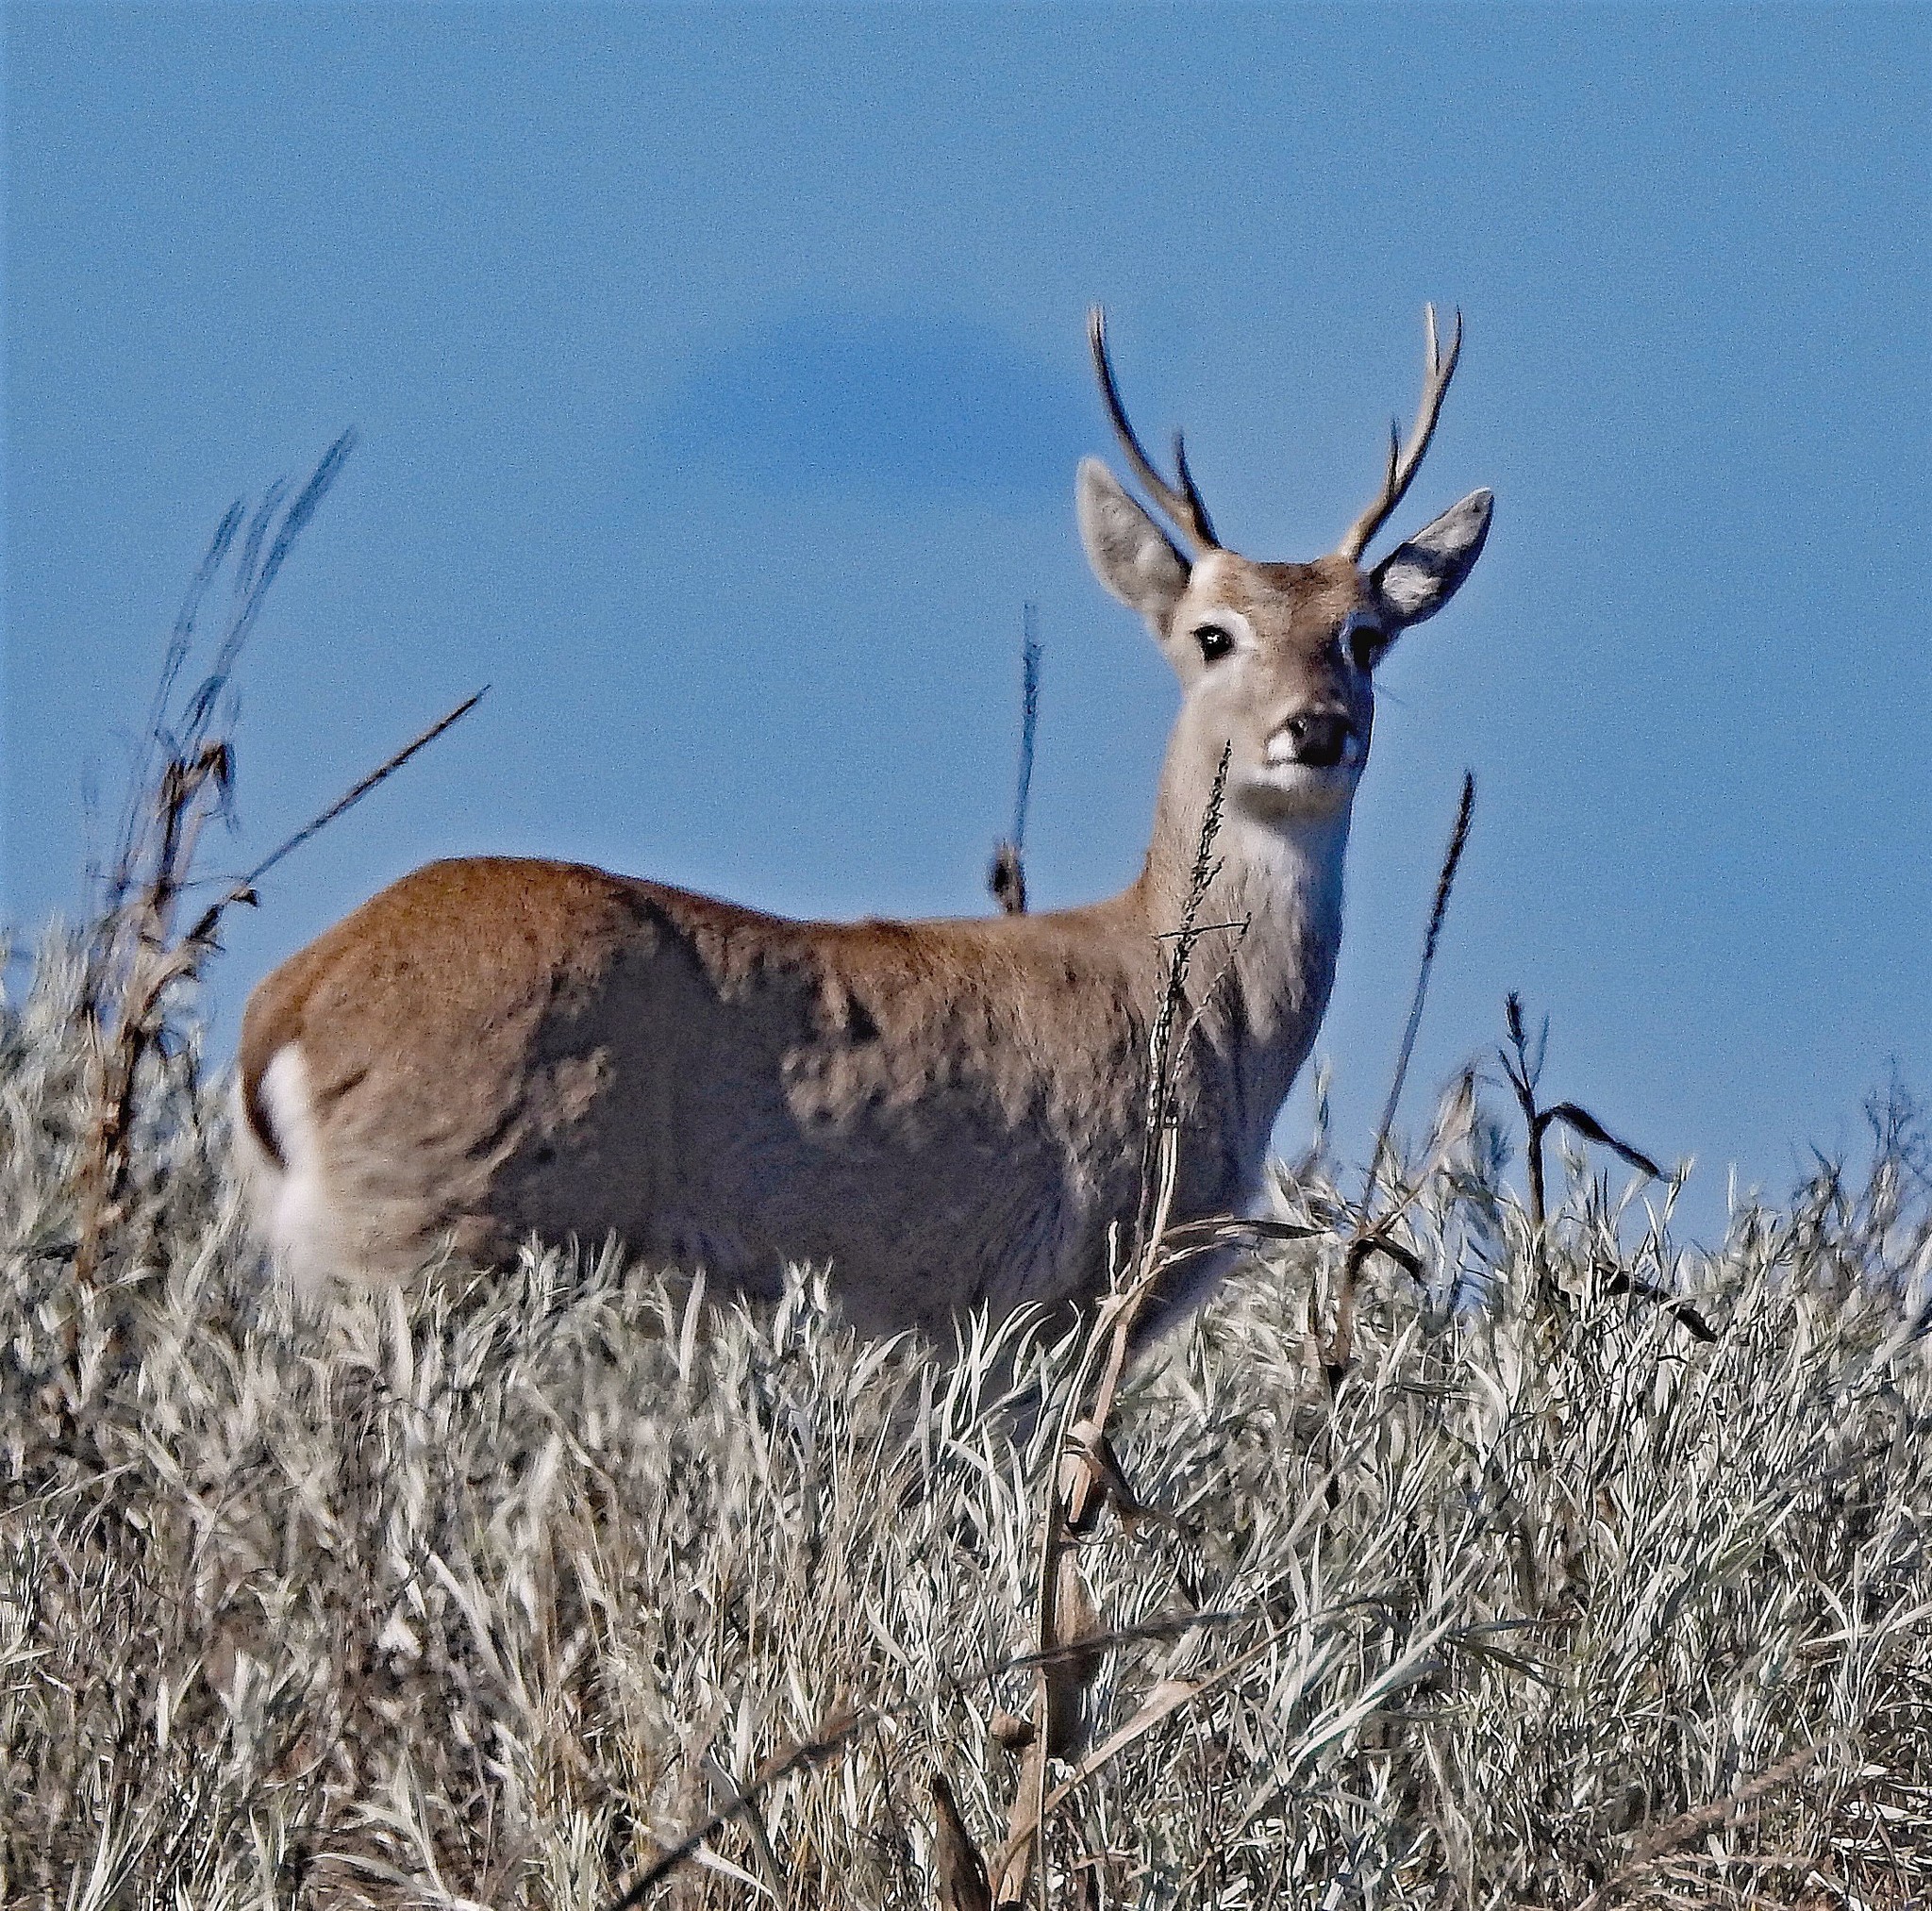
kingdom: Animalia
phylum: Chordata
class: Mammalia
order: Artiodactyla
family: Cervidae
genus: Ozotoceros
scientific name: Ozotoceros bezoarticus
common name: Pampas deer
